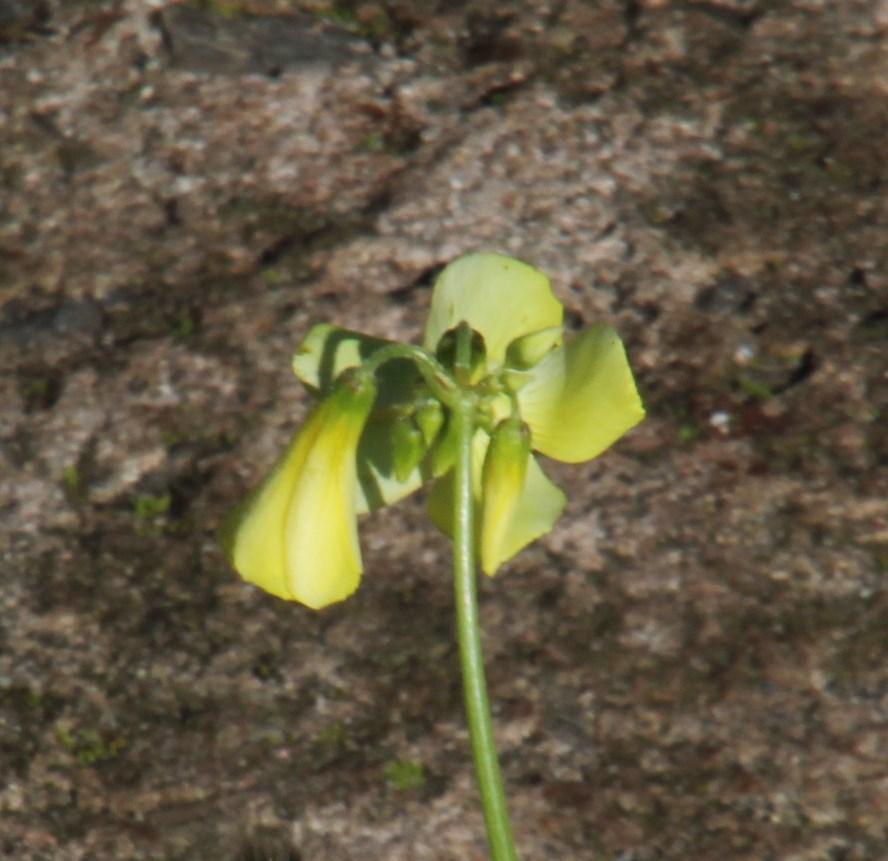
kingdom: Plantae
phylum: Tracheophyta
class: Magnoliopsida
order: Oxalidales
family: Oxalidaceae
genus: Oxalis
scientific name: Oxalis pes-caprae
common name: Bermuda-buttercup
